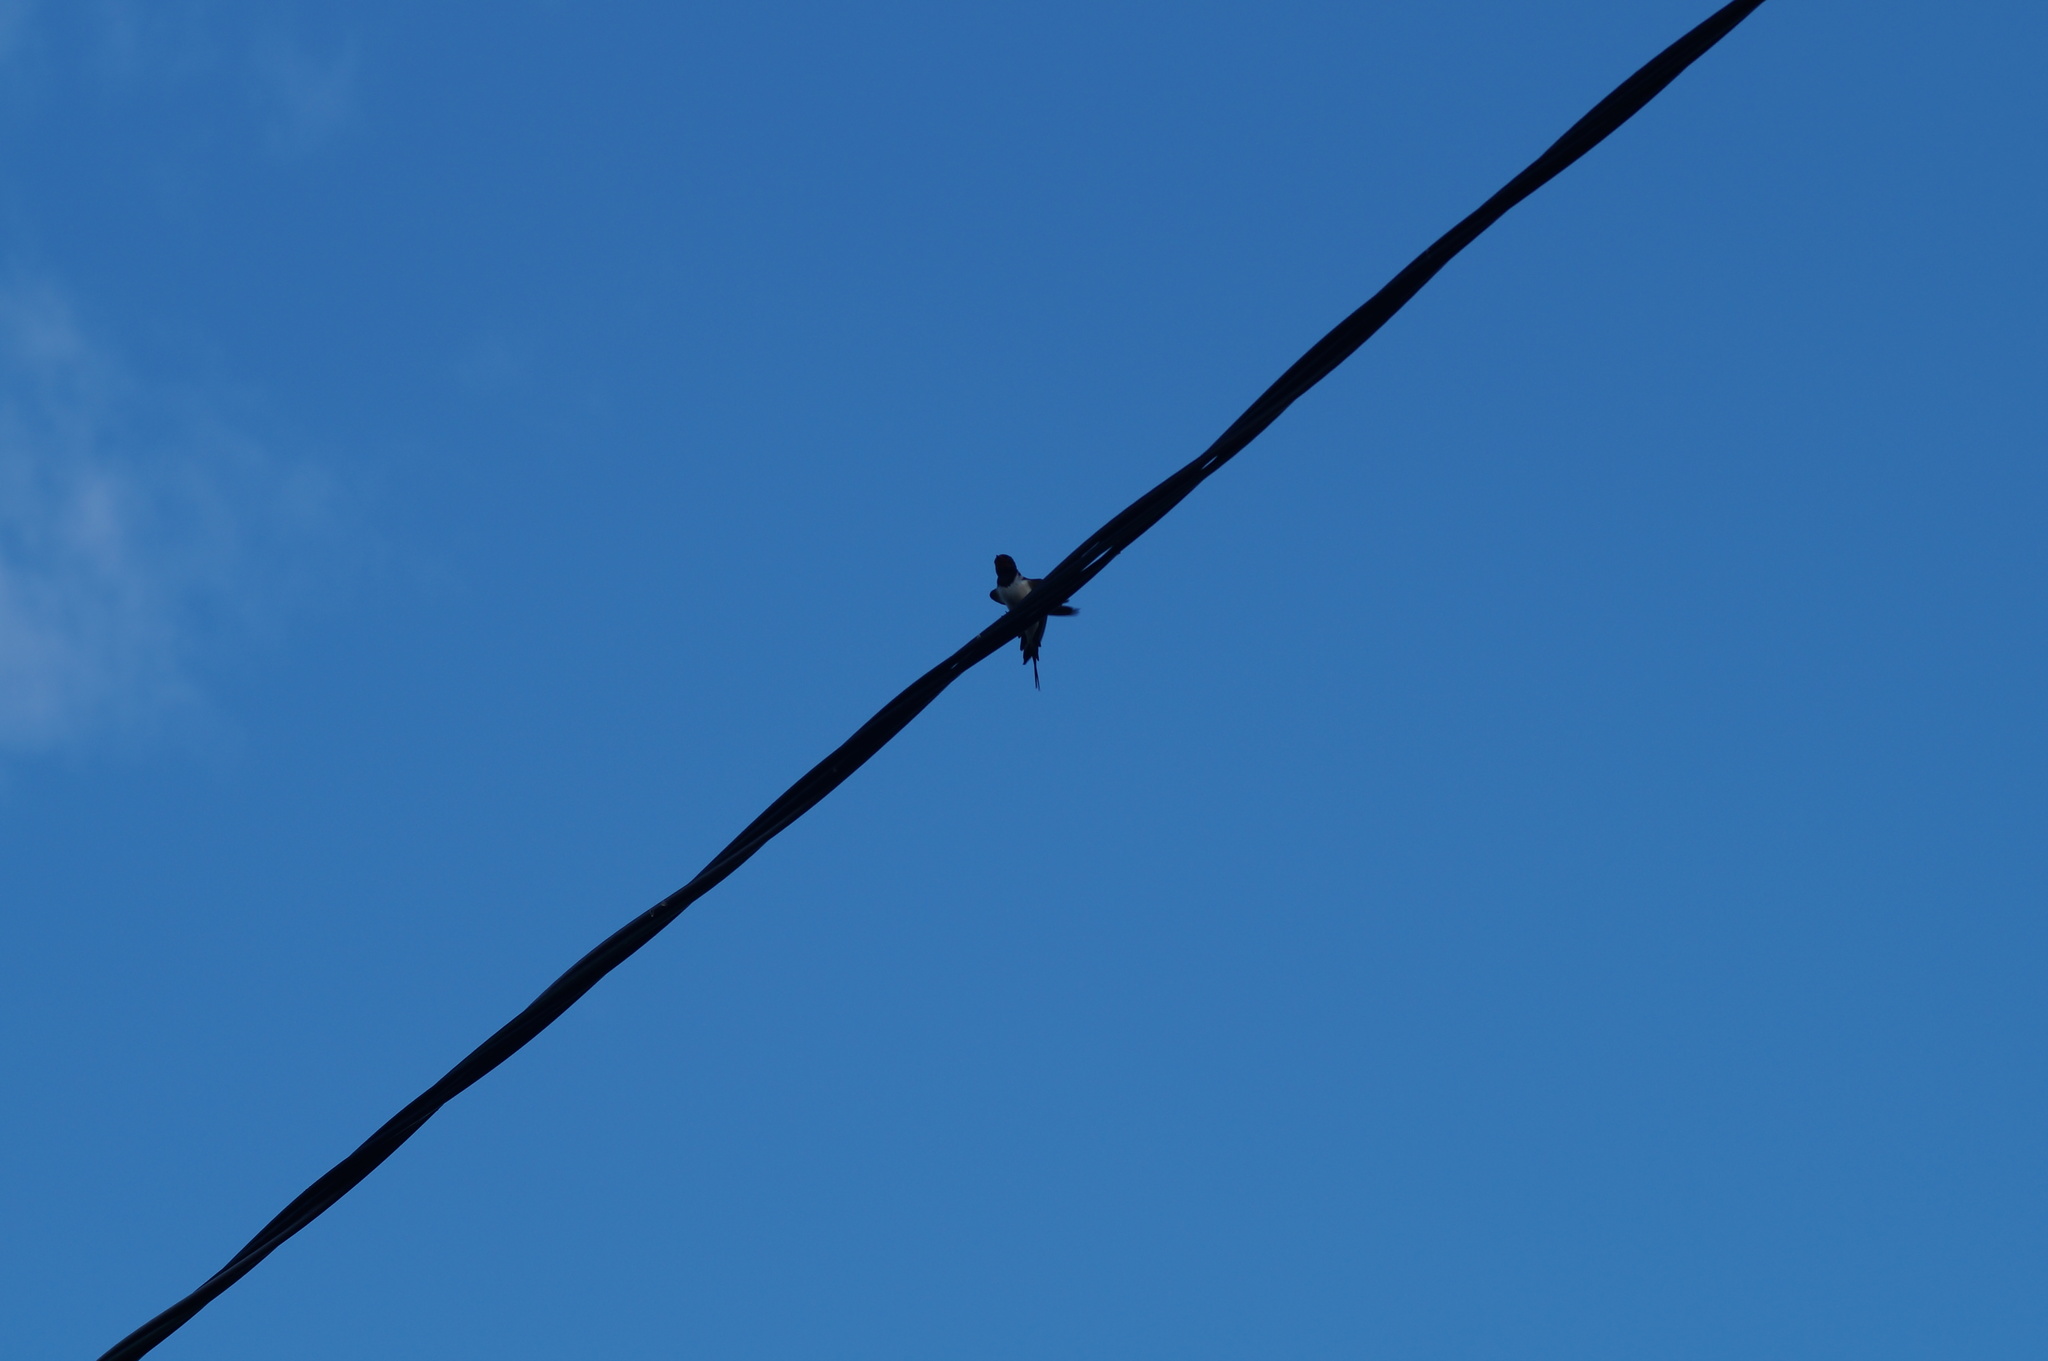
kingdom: Animalia
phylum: Chordata
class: Aves
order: Passeriformes
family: Hirundinidae
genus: Hirundo
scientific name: Hirundo rustica
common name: Barn swallow
